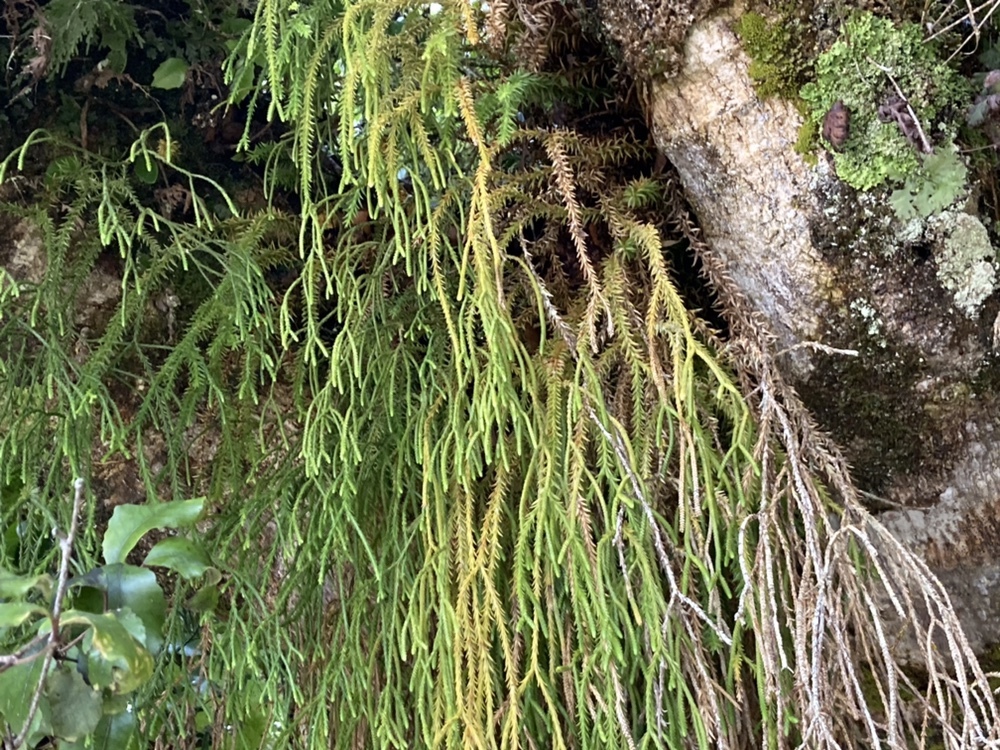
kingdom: Plantae
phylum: Tracheophyta
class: Lycopodiopsida
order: Lycopodiales
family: Lycopodiaceae
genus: Phlegmariurus
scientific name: Phlegmariurus varius
